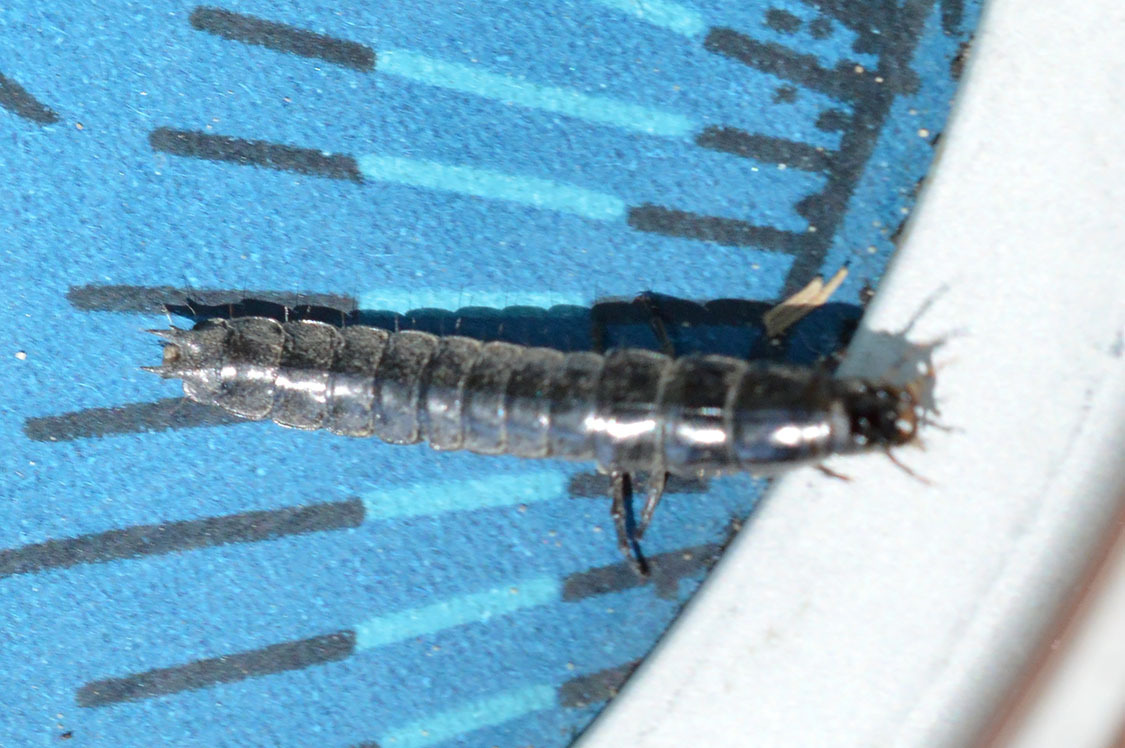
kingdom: Animalia
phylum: Arthropoda
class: Insecta
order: Coleoptera
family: Carabidae
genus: Carabus
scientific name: Carabus
